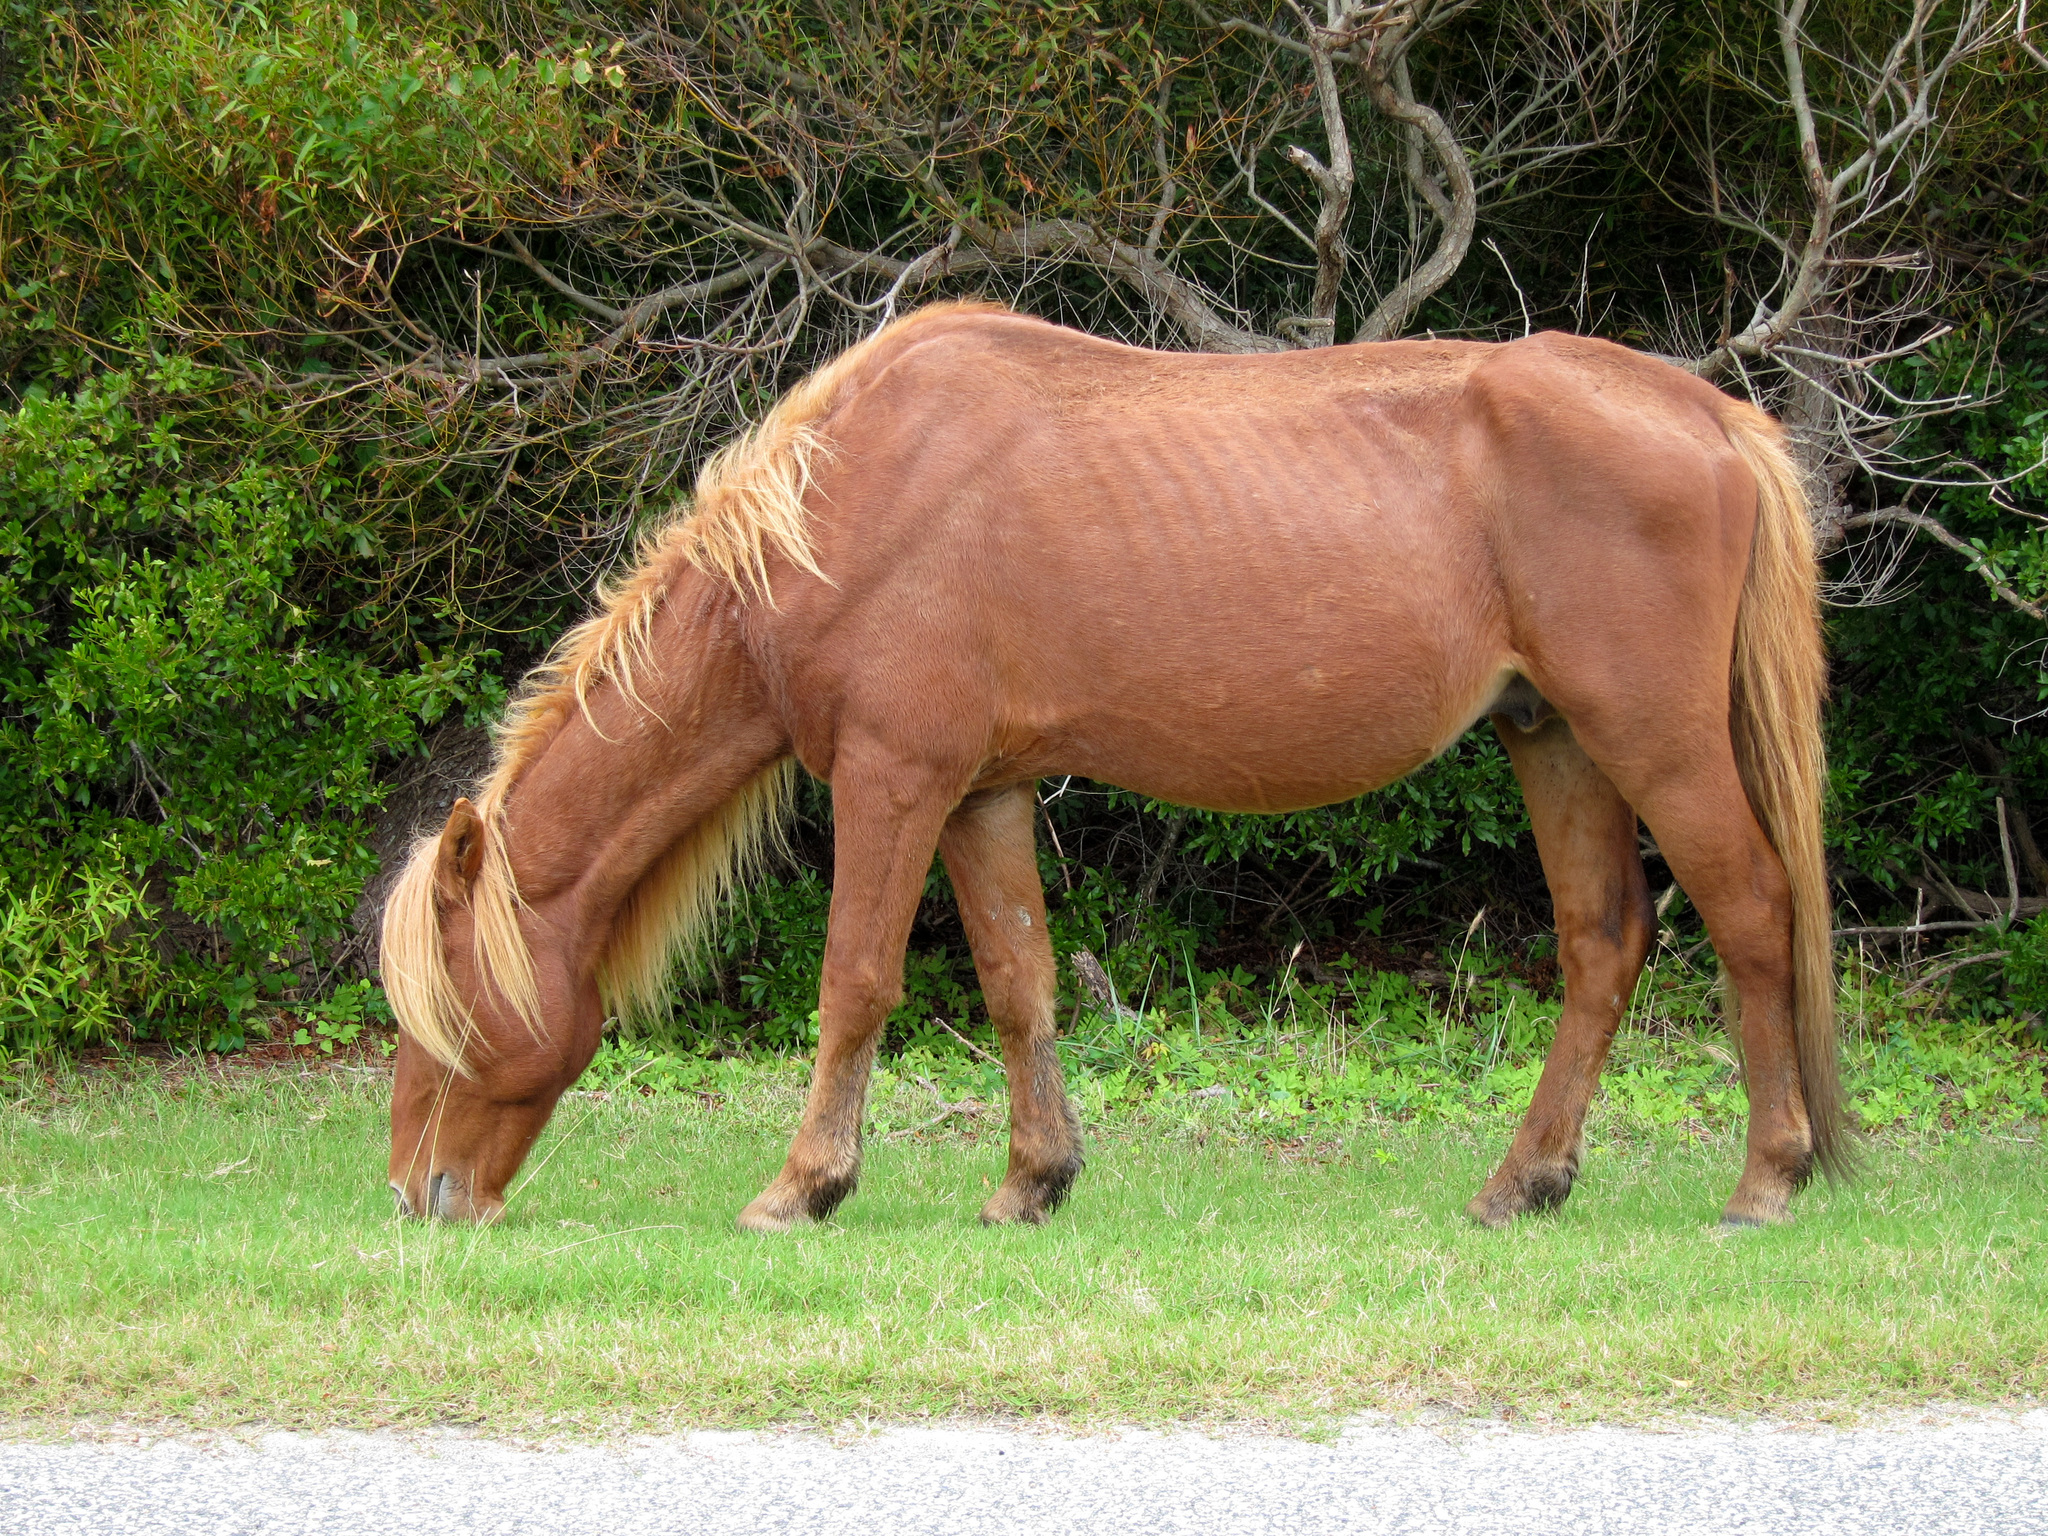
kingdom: Animalia
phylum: Chordata
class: Mammalia
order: Perissodactyla
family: Equidae
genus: Equus
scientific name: Equus caballus
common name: Horse
